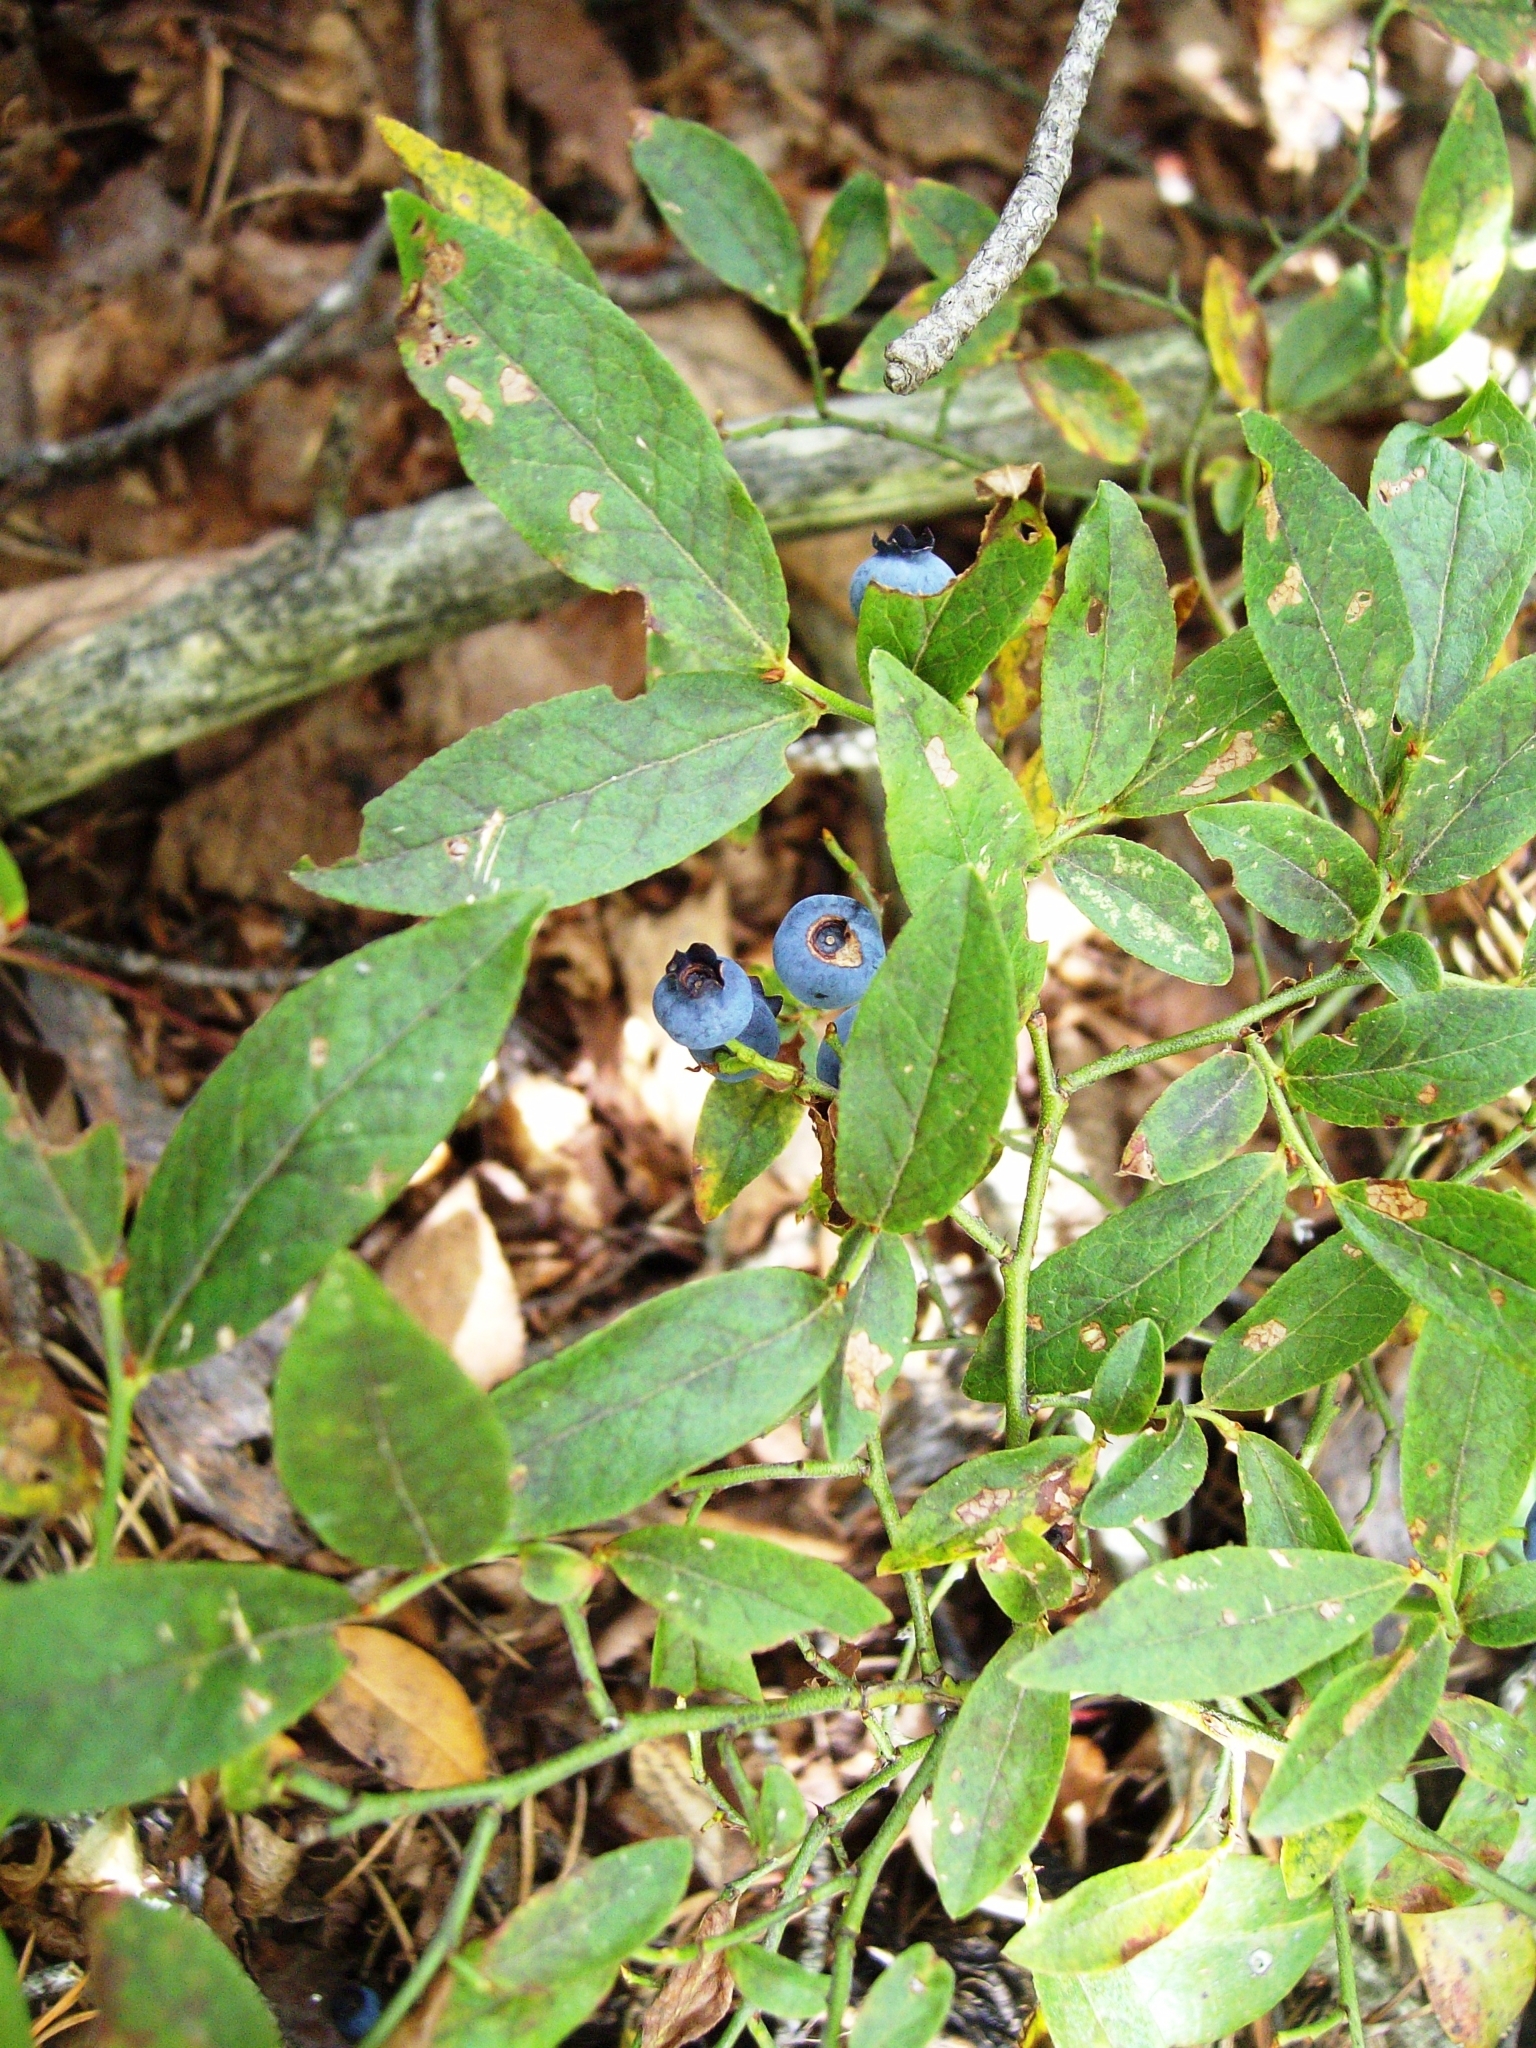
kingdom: Plantae
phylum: Tracheophyta
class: Magnoliopsida
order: Ericales
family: Ericaceae
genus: Vaccinium
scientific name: Vaccinium angustifolium
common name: Early lowbush blueberry
